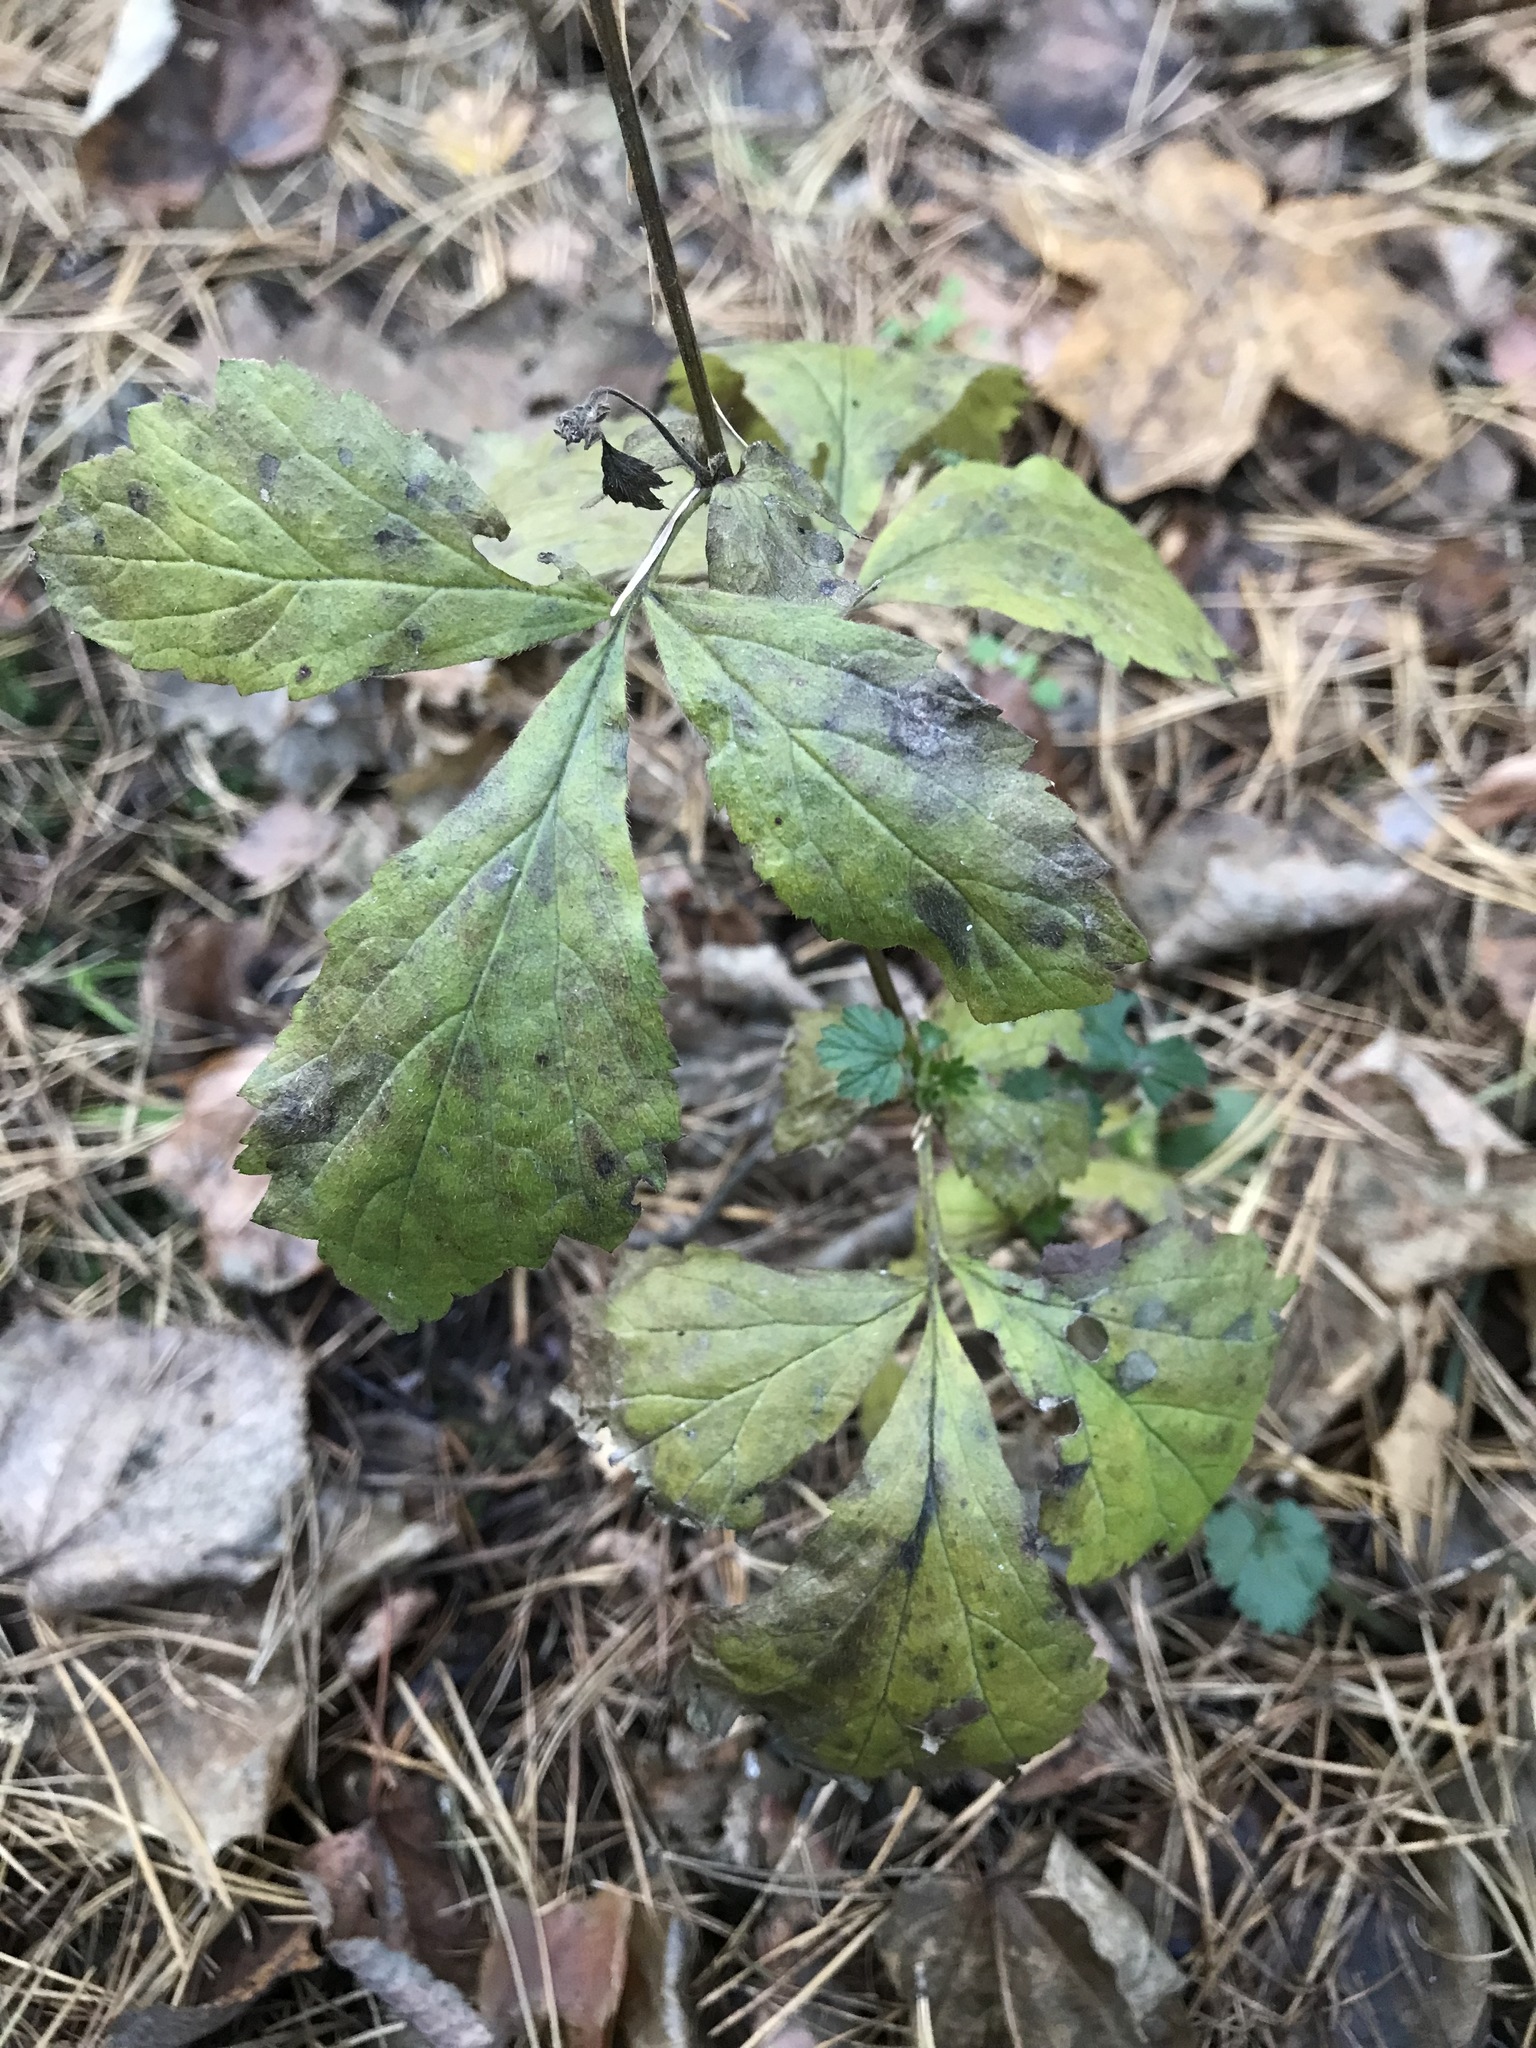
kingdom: Plantae
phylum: Tracheophyta
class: Magnoliopsida
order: Rosales
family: Rosaceae
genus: Geum
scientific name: Geum urbanum
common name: Wood avens
